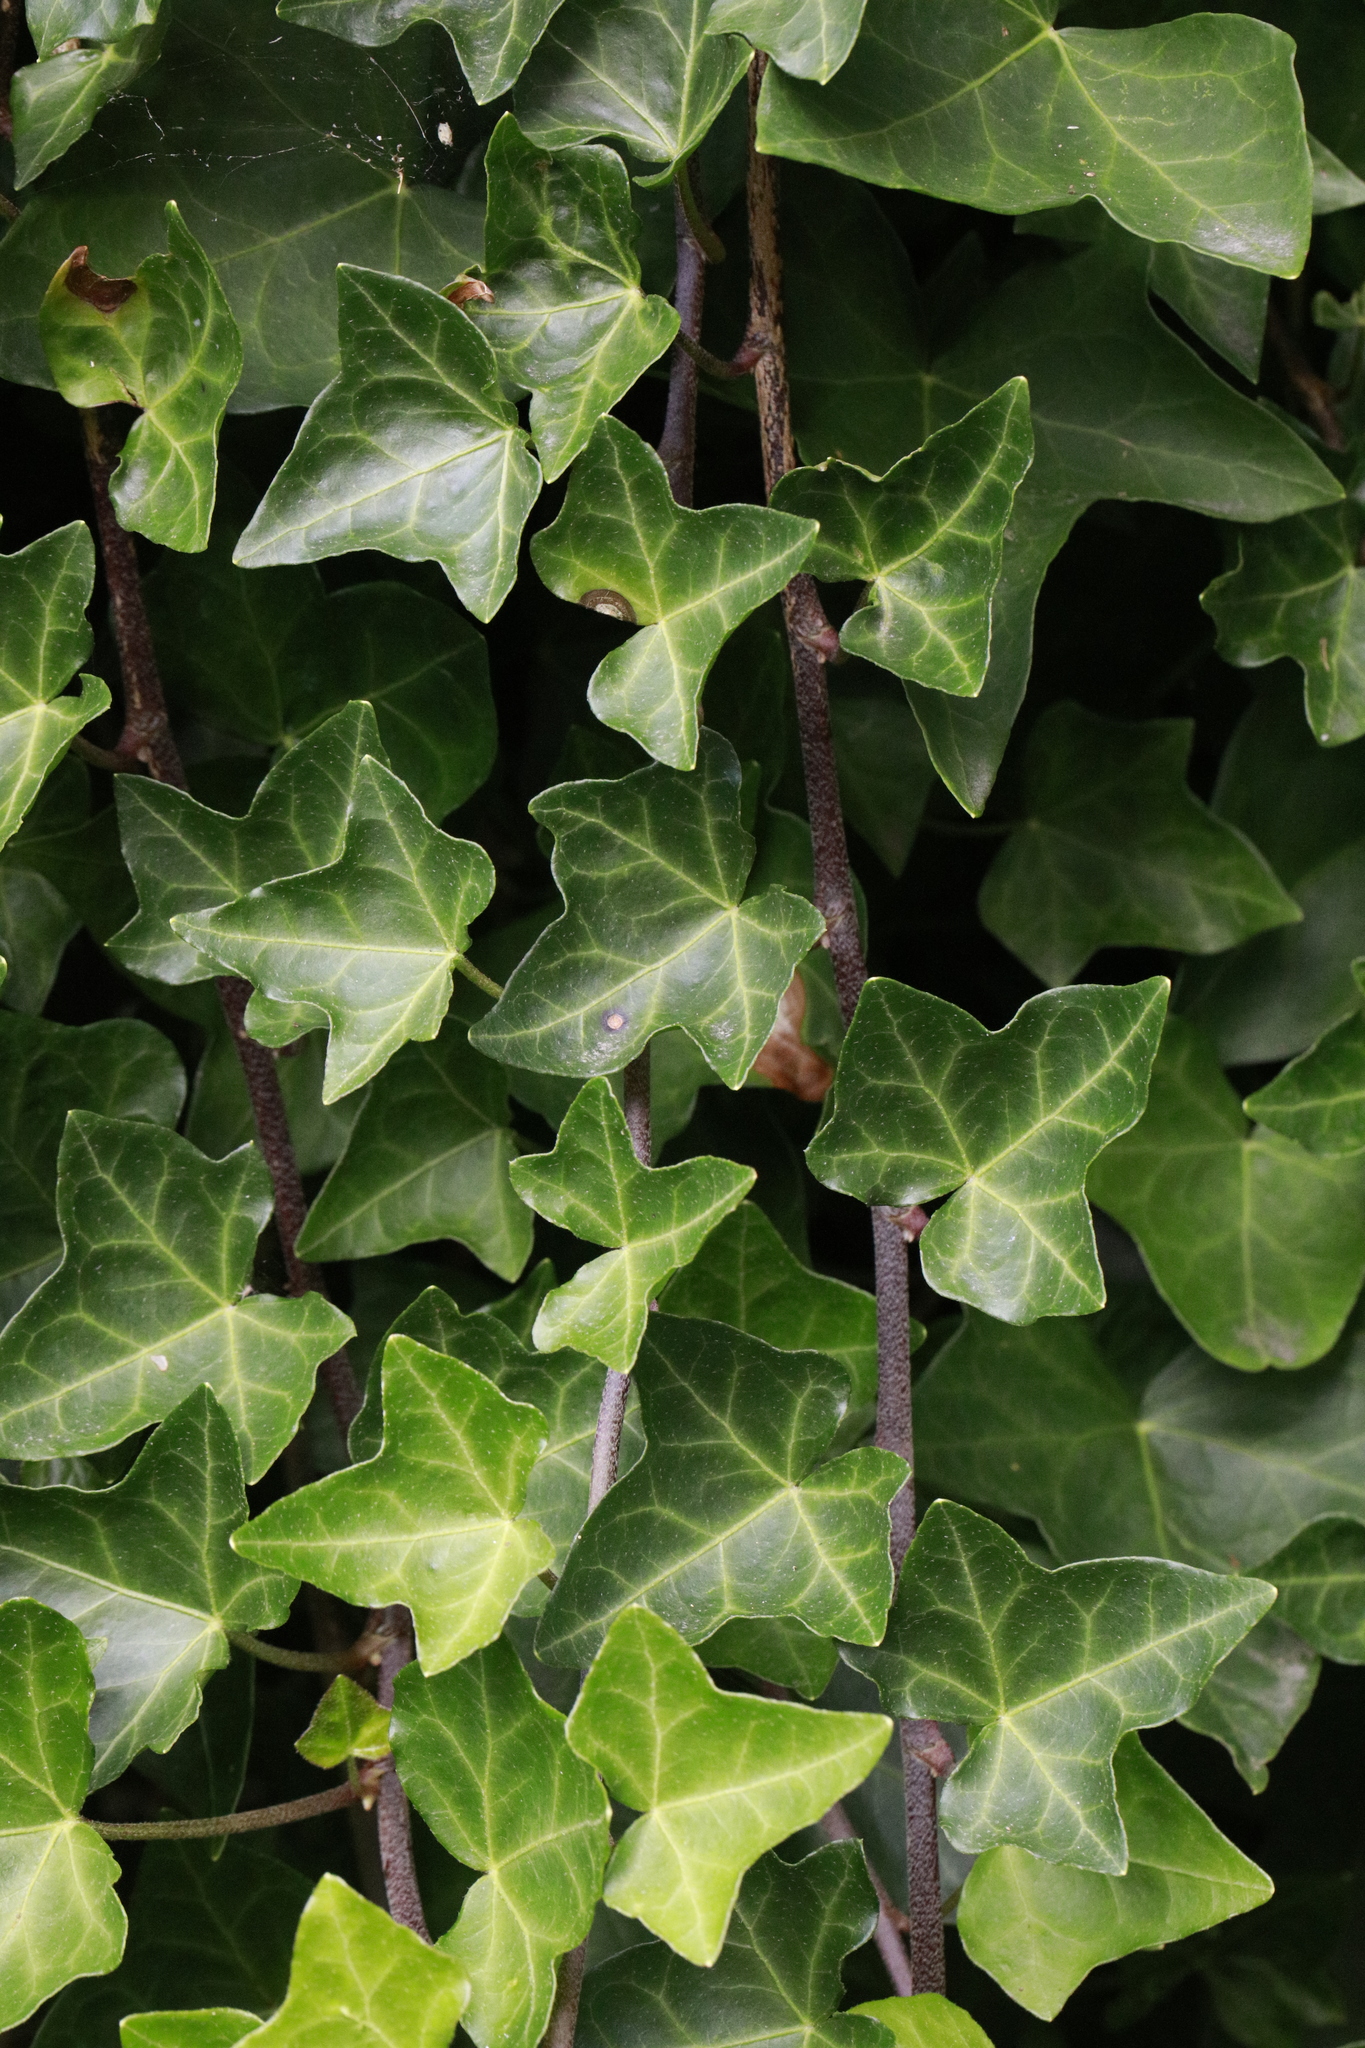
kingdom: Plantae
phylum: Tracheophyta
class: Magnoliopsida
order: Apiales
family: Araliaceae
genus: Hedera
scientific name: Hedera helix
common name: Ivy
